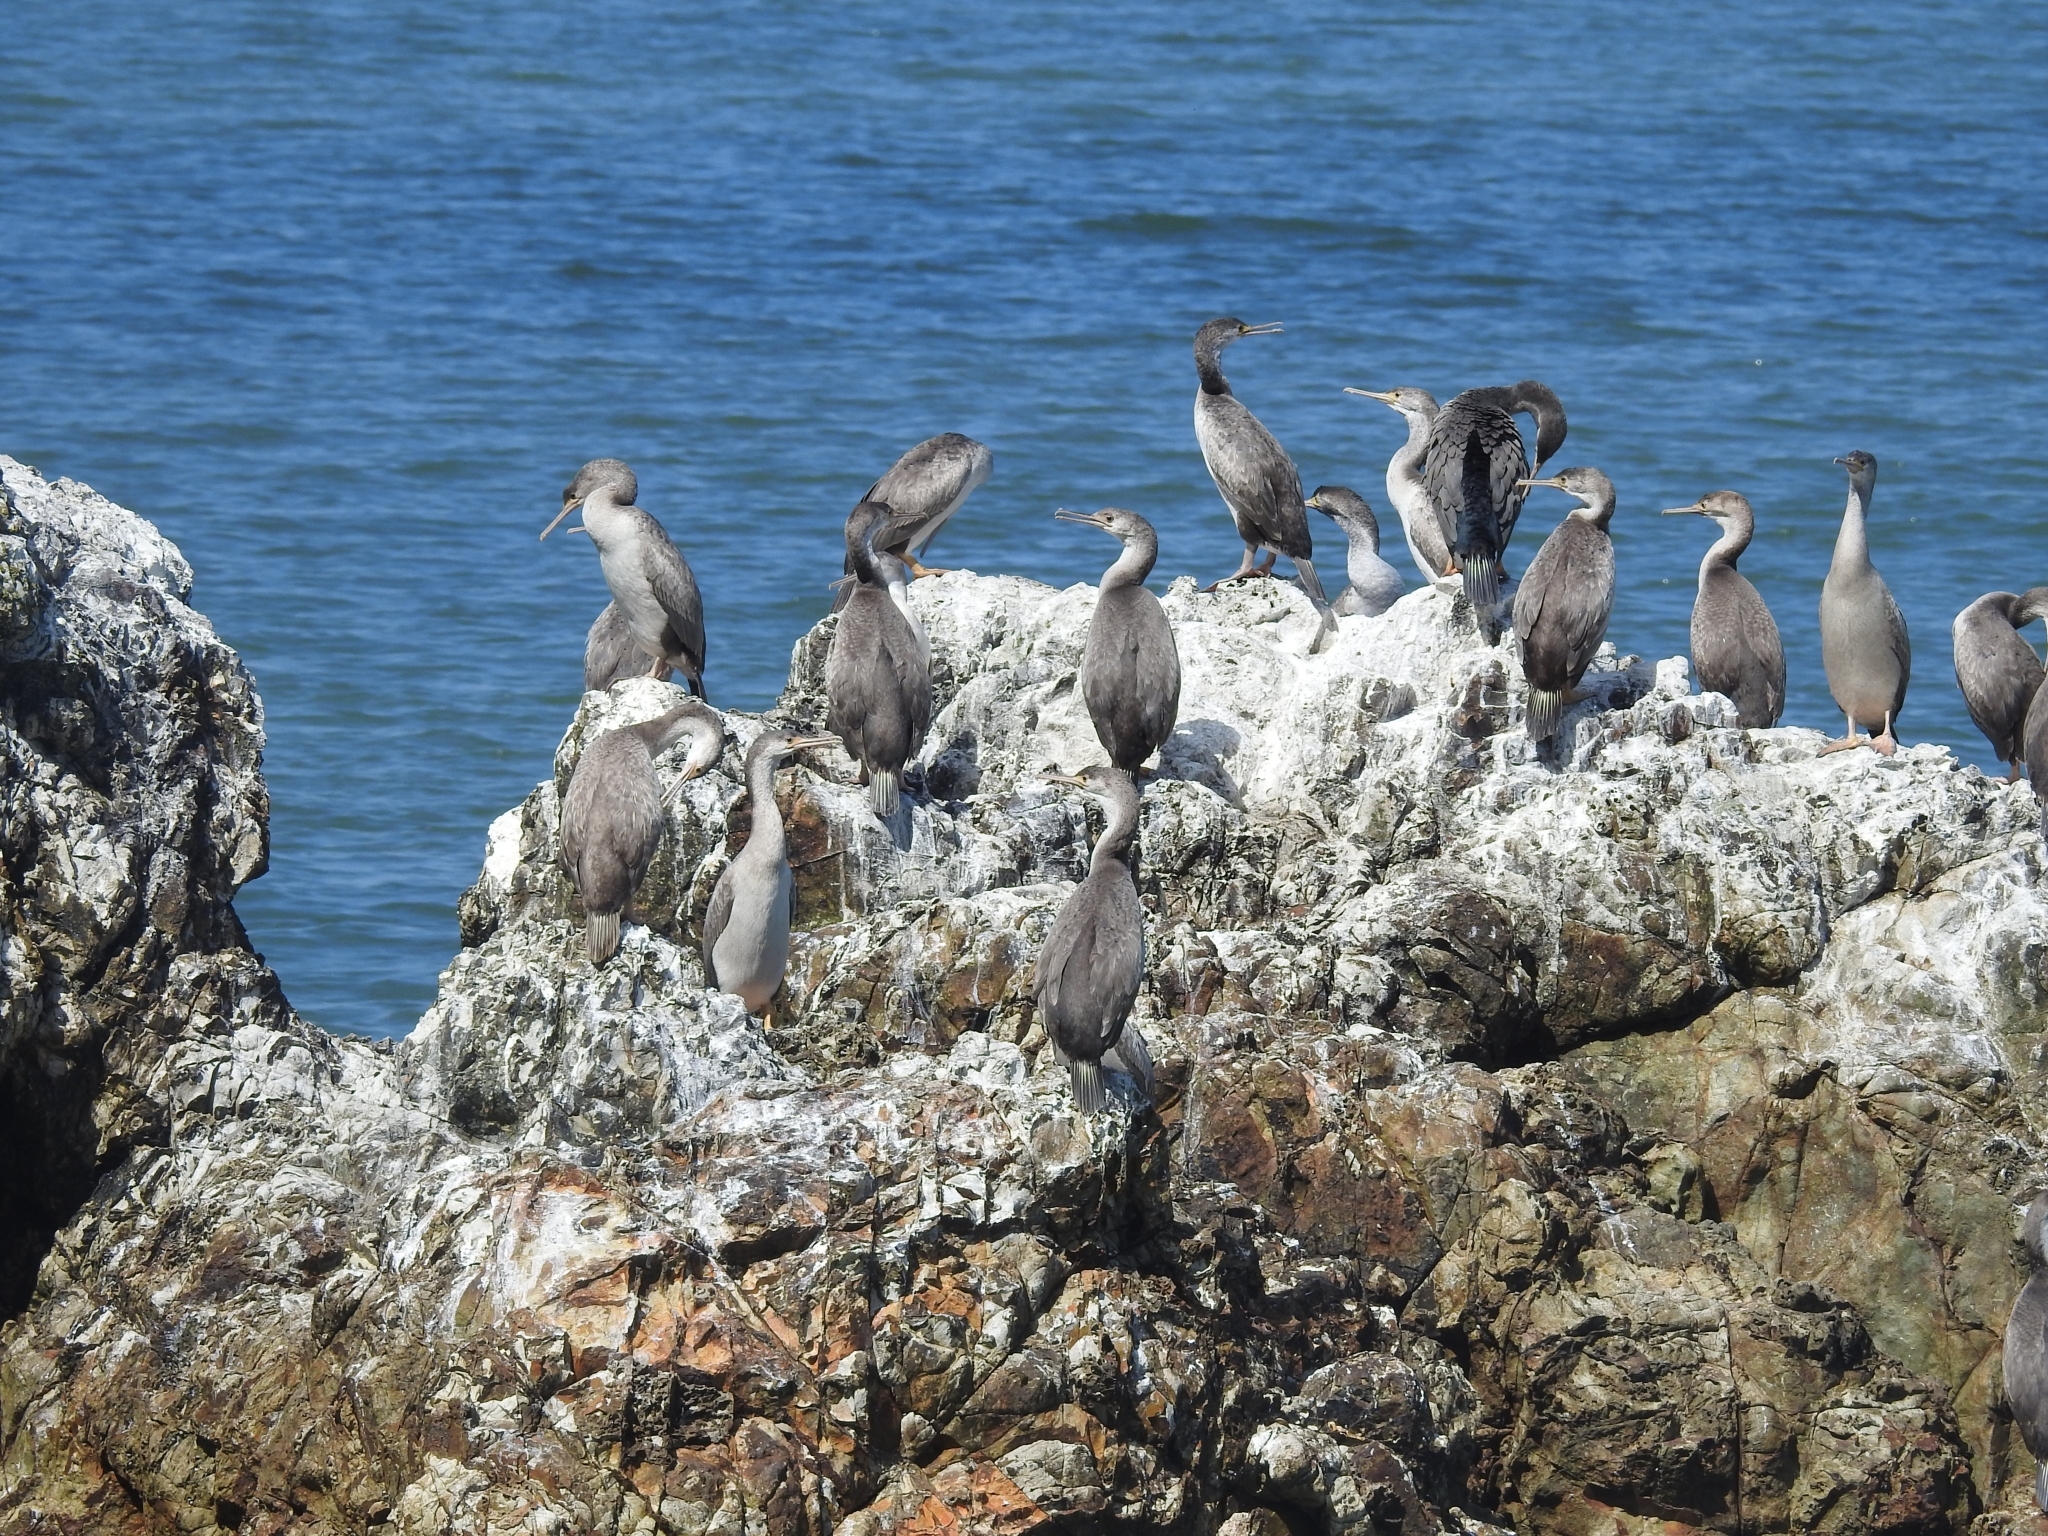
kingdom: Animalia
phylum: Chordata
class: Aves
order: Suliformes
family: Phalacrocoracidae
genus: Phalacrocorax
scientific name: Phalacrocorax punctatus
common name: Spotted shag
